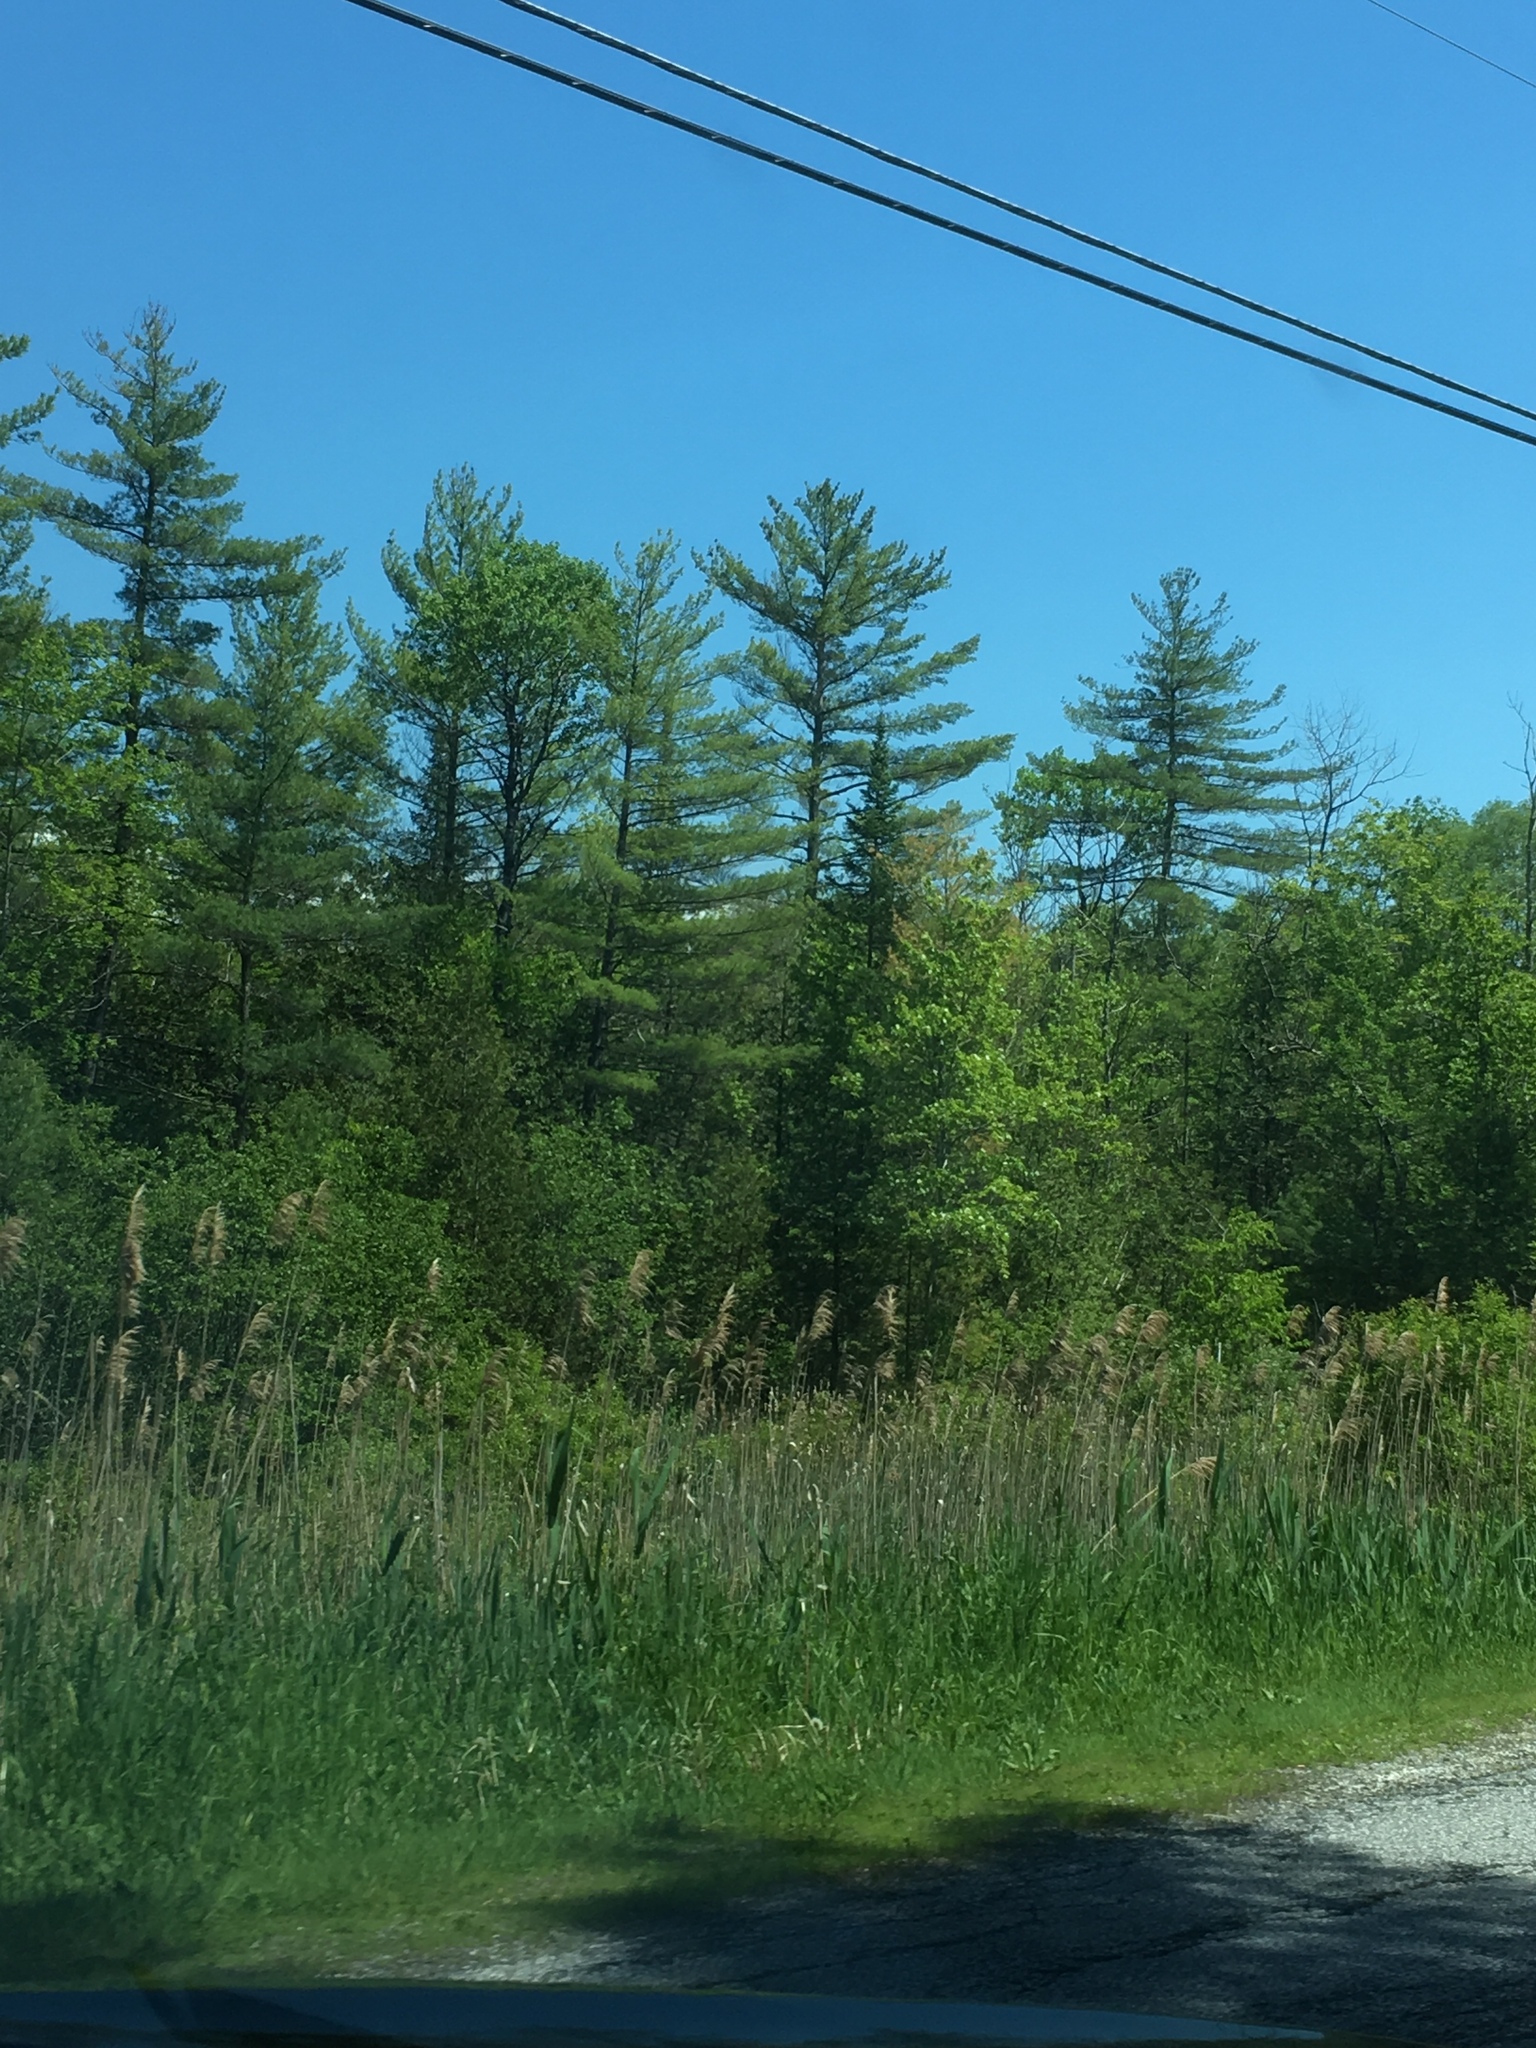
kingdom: Plantae
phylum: Tracheophyta
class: Pinopsida
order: Pinales
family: Pinaceae
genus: Pinus
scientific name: Pinus strobus
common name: Weymouth pine
